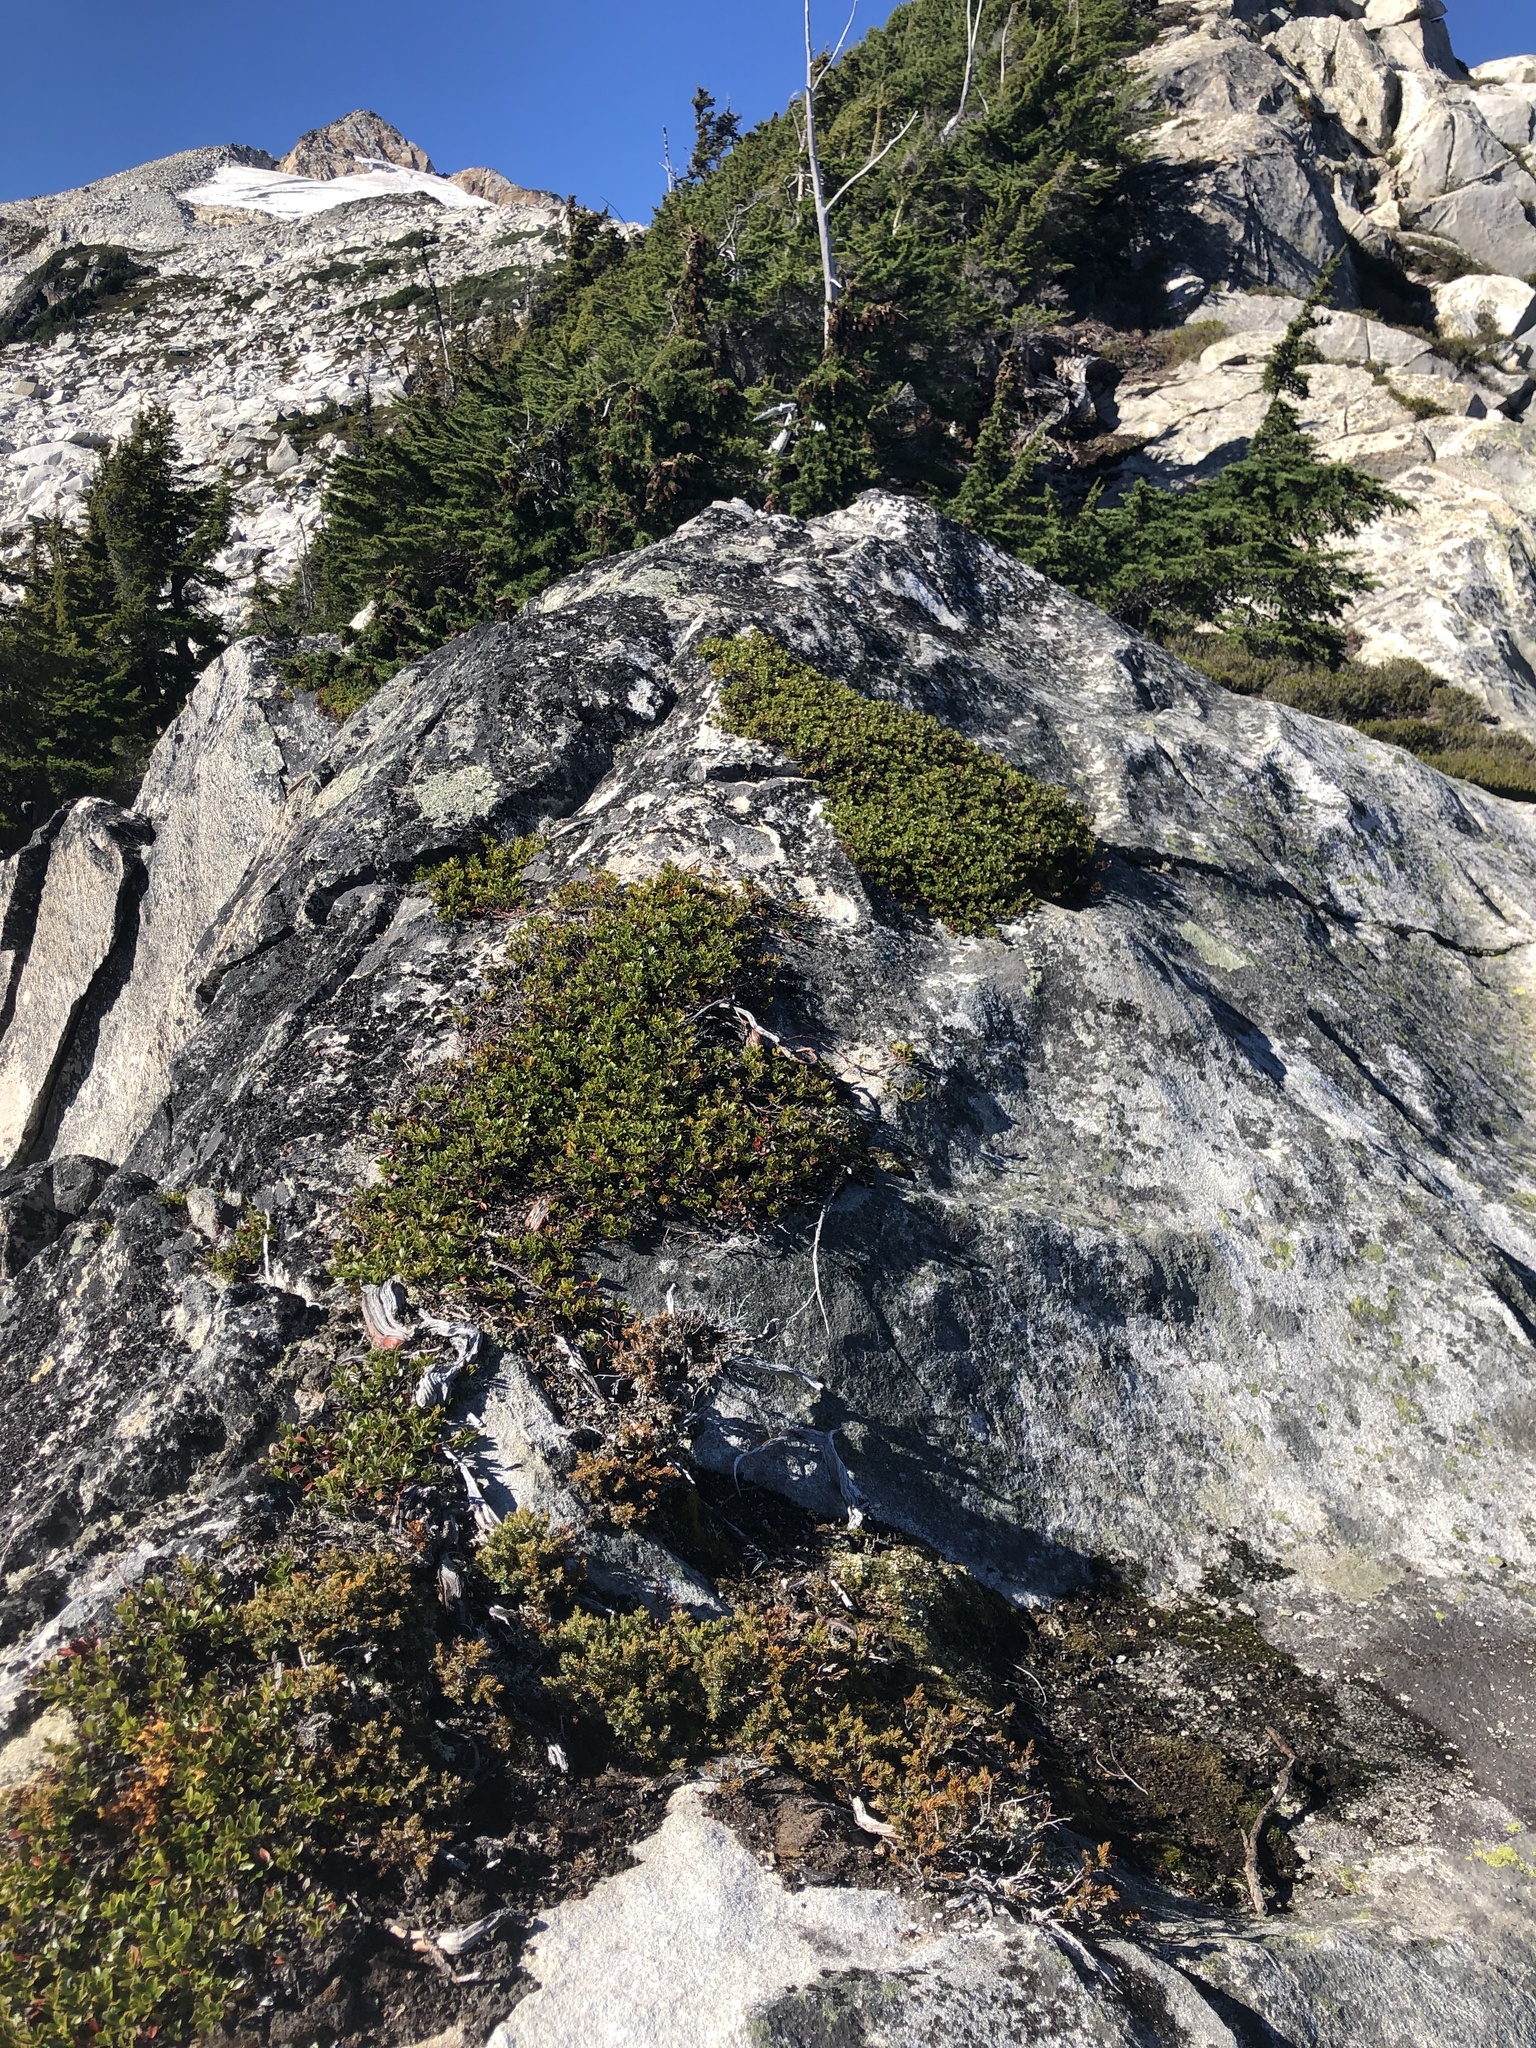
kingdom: Plantae
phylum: Tracheophyta
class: Magnoliopsida
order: Ericales
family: Ericaceae
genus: Arctostaphylos
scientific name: Arctostaphylos uva-ursi
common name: Bearberry
